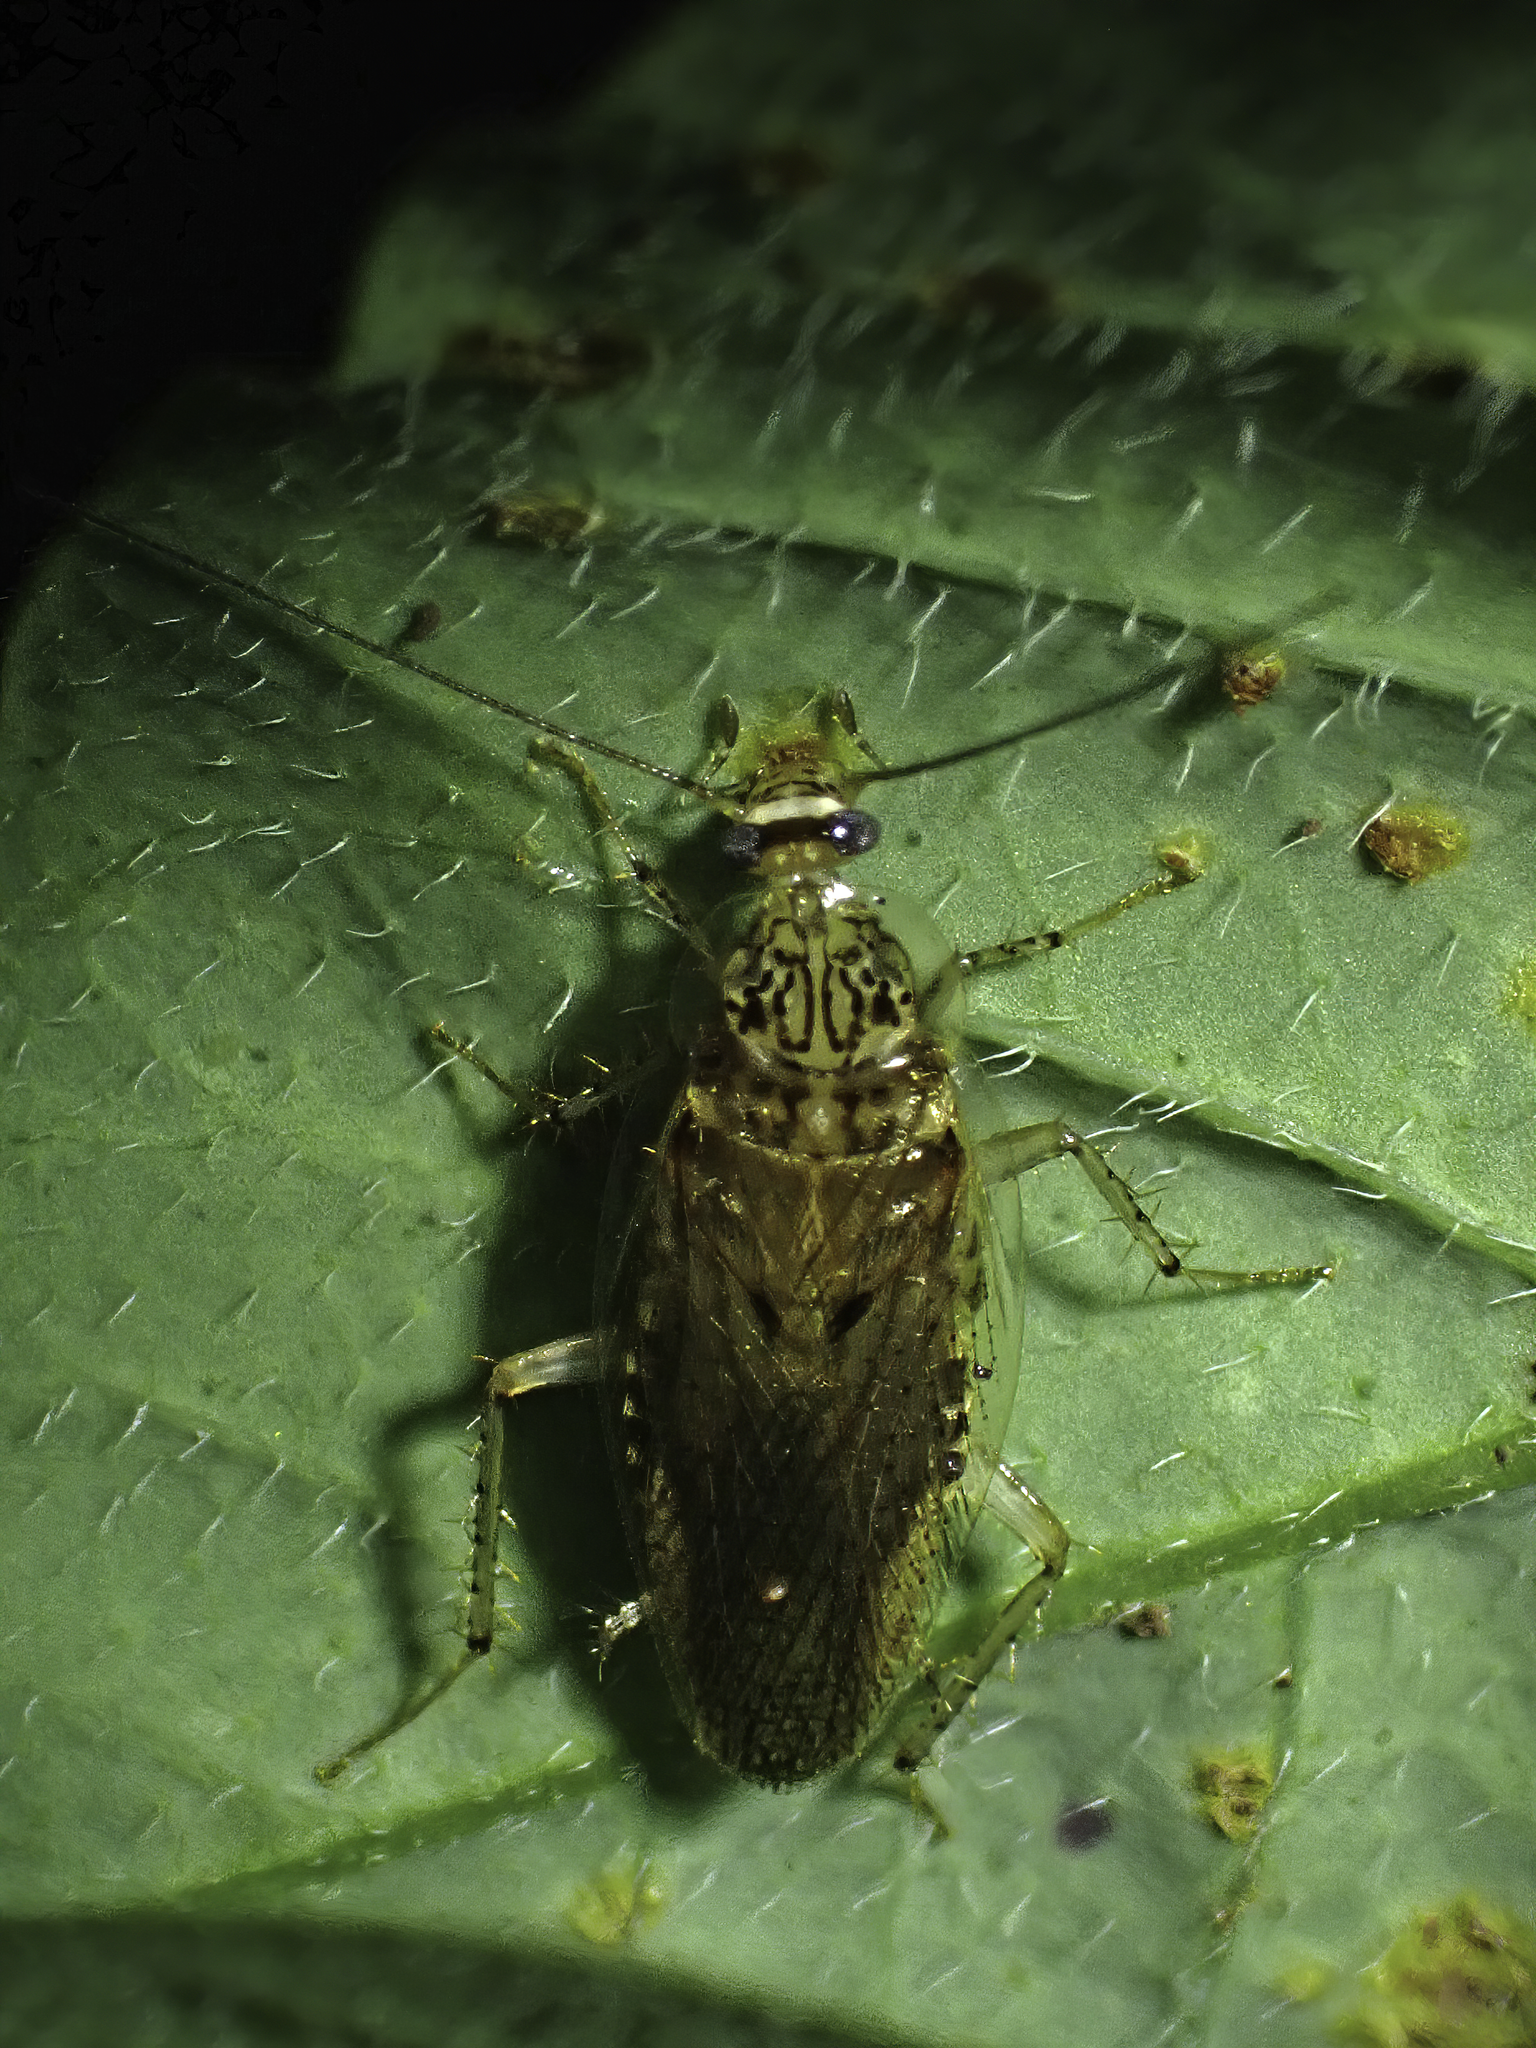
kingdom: Animalia
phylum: Arthropoda
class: Insecta
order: Blattodea
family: Ectobiidae
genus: Neoblattella
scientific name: Neoblattella detersa
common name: Wood cockroach
